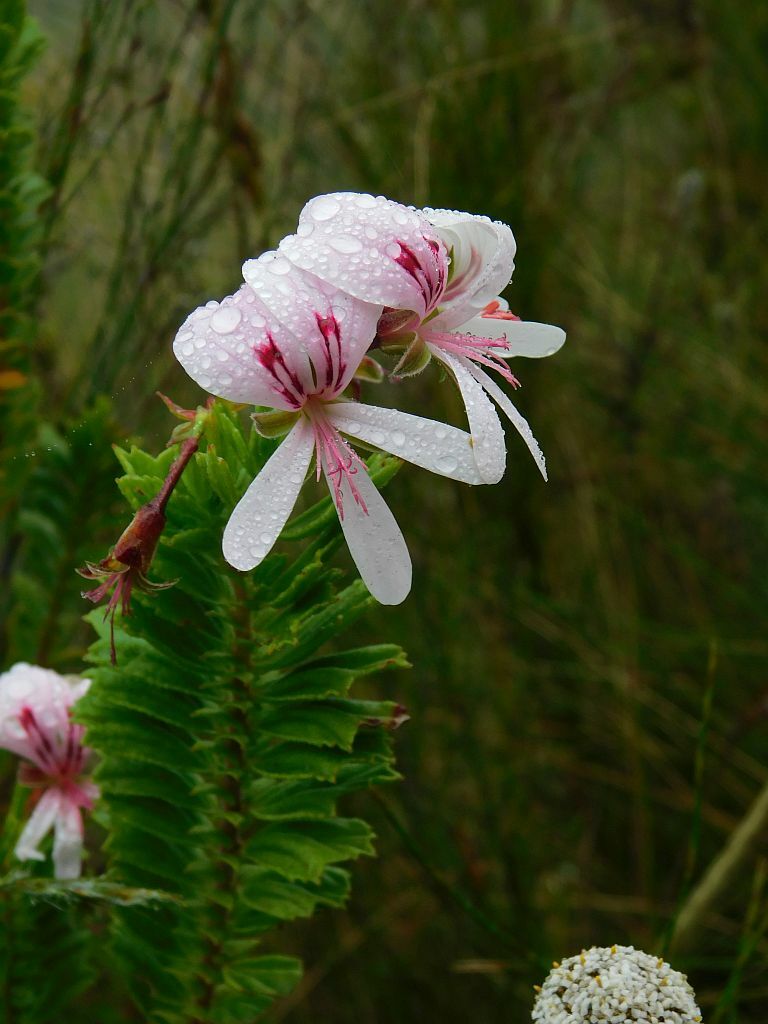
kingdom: Plantae
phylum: Tracheophyta
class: Magnoliopsida
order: Geraniales
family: Geraniaceae
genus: Pelargonium
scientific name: Pelargonium hermaniifolium
